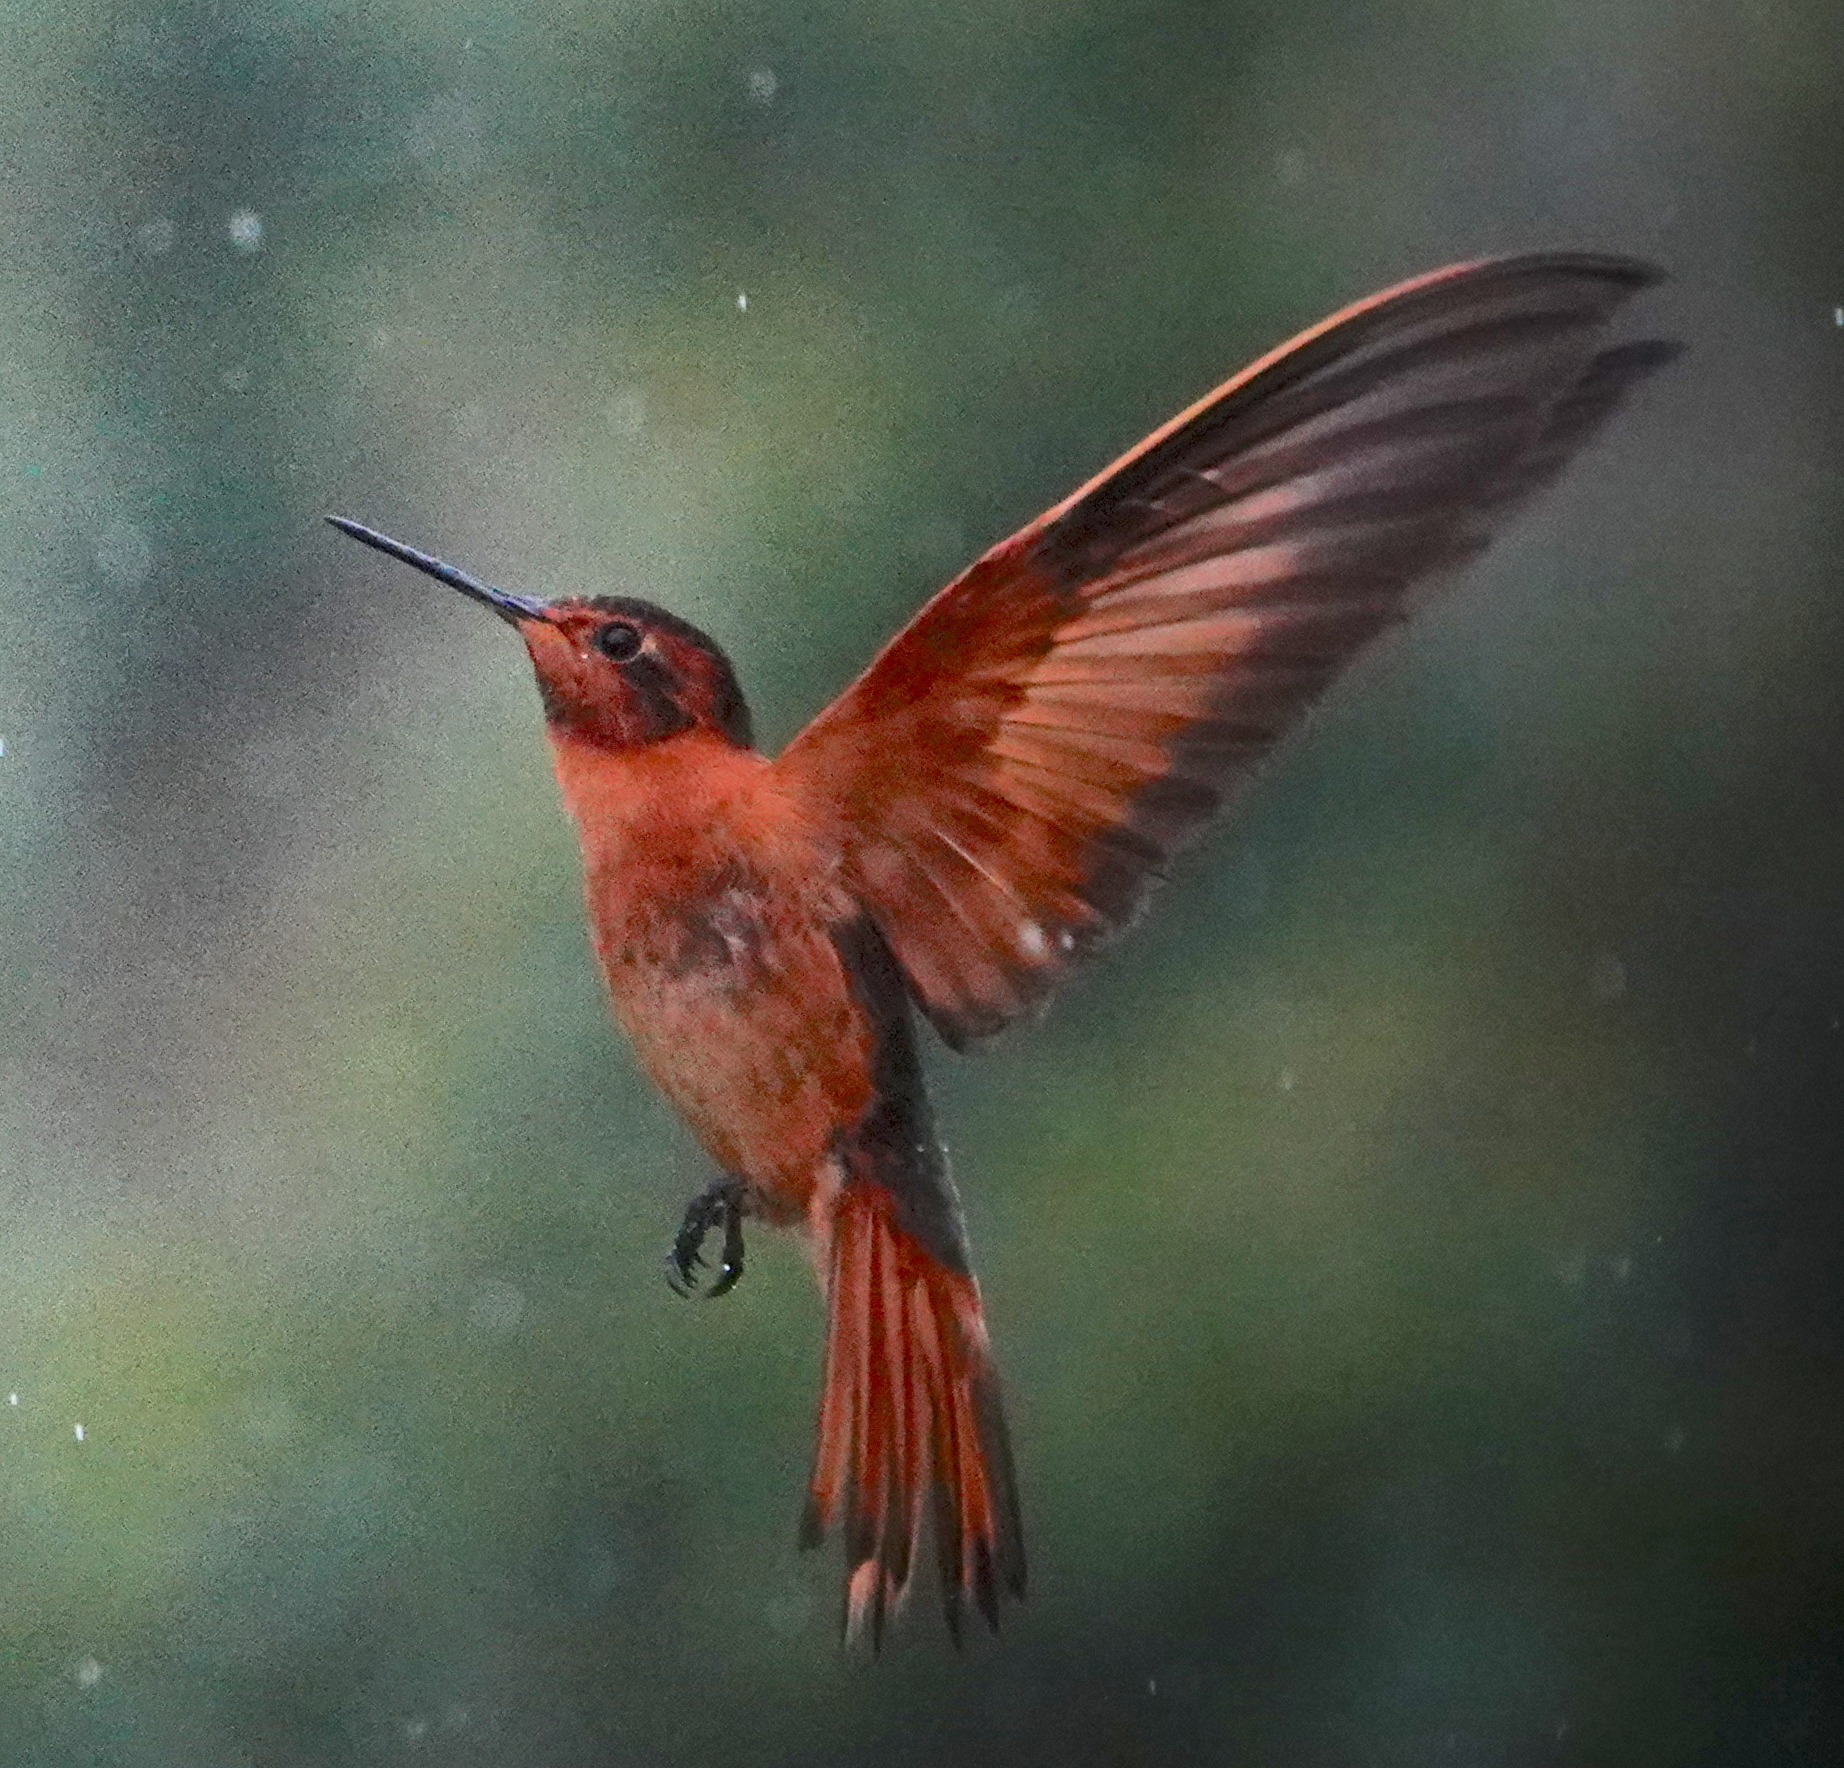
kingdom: Animalia
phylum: Chordata
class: Aves
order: Apodiformes
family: Trochilidae
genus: Aglaeactis
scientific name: Aglaeactis cupripennis
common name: Shining sunbeam
